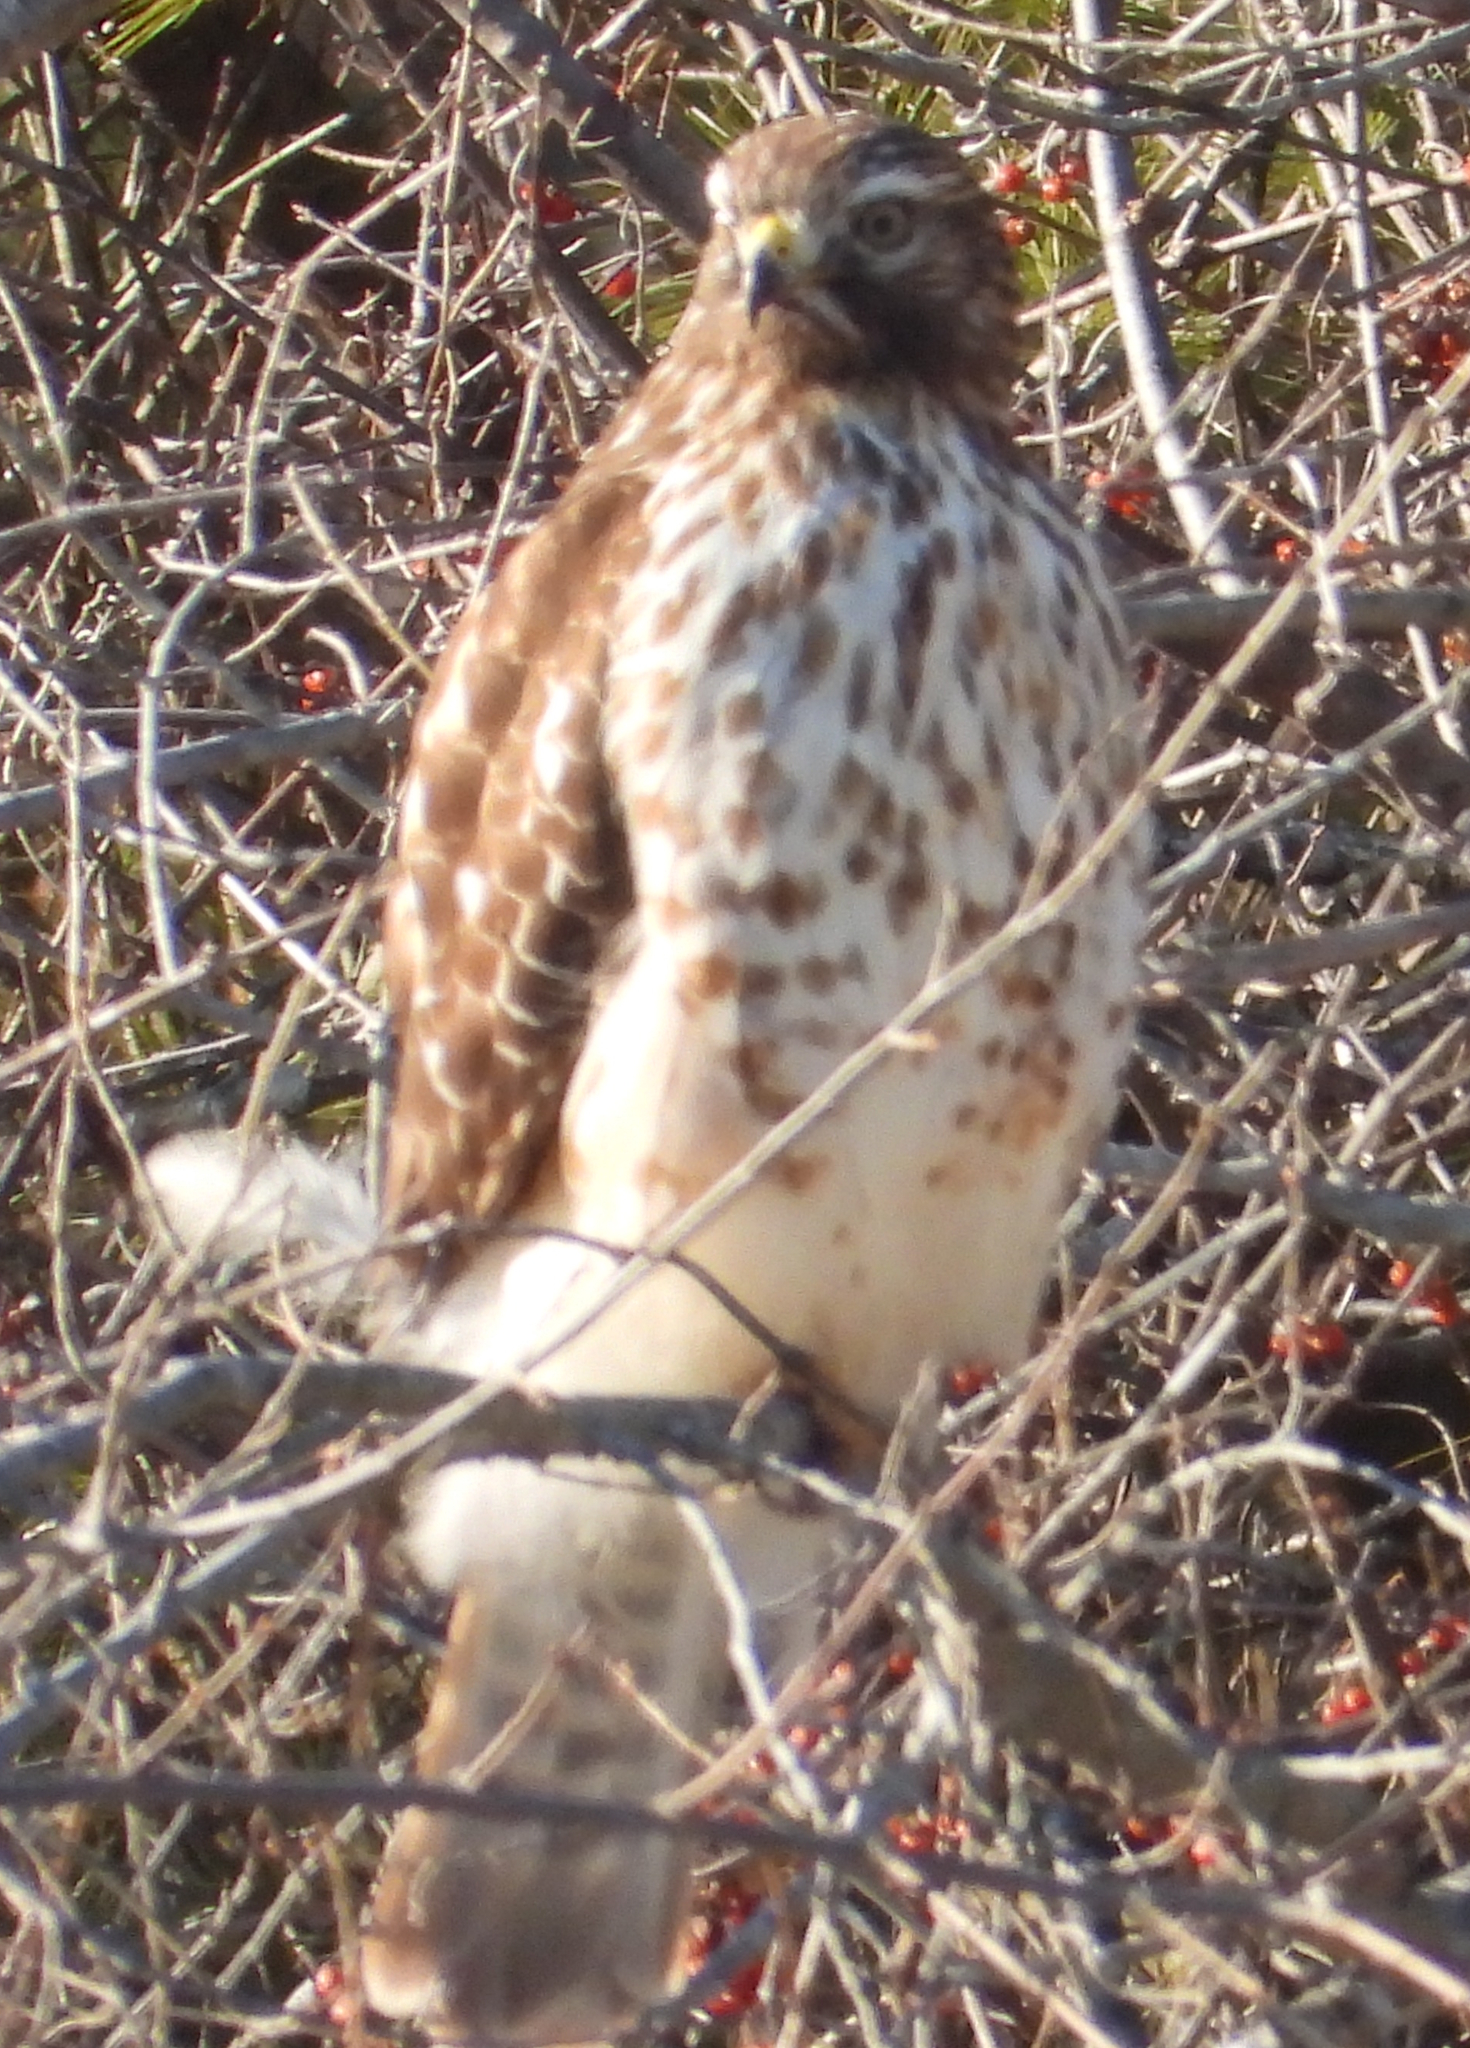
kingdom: Animalia
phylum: Chordata
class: Aves
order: Accipitriformes
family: Accipitridae
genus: Buteo
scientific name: Buteo lineatus
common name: Red-shouldered hawk
